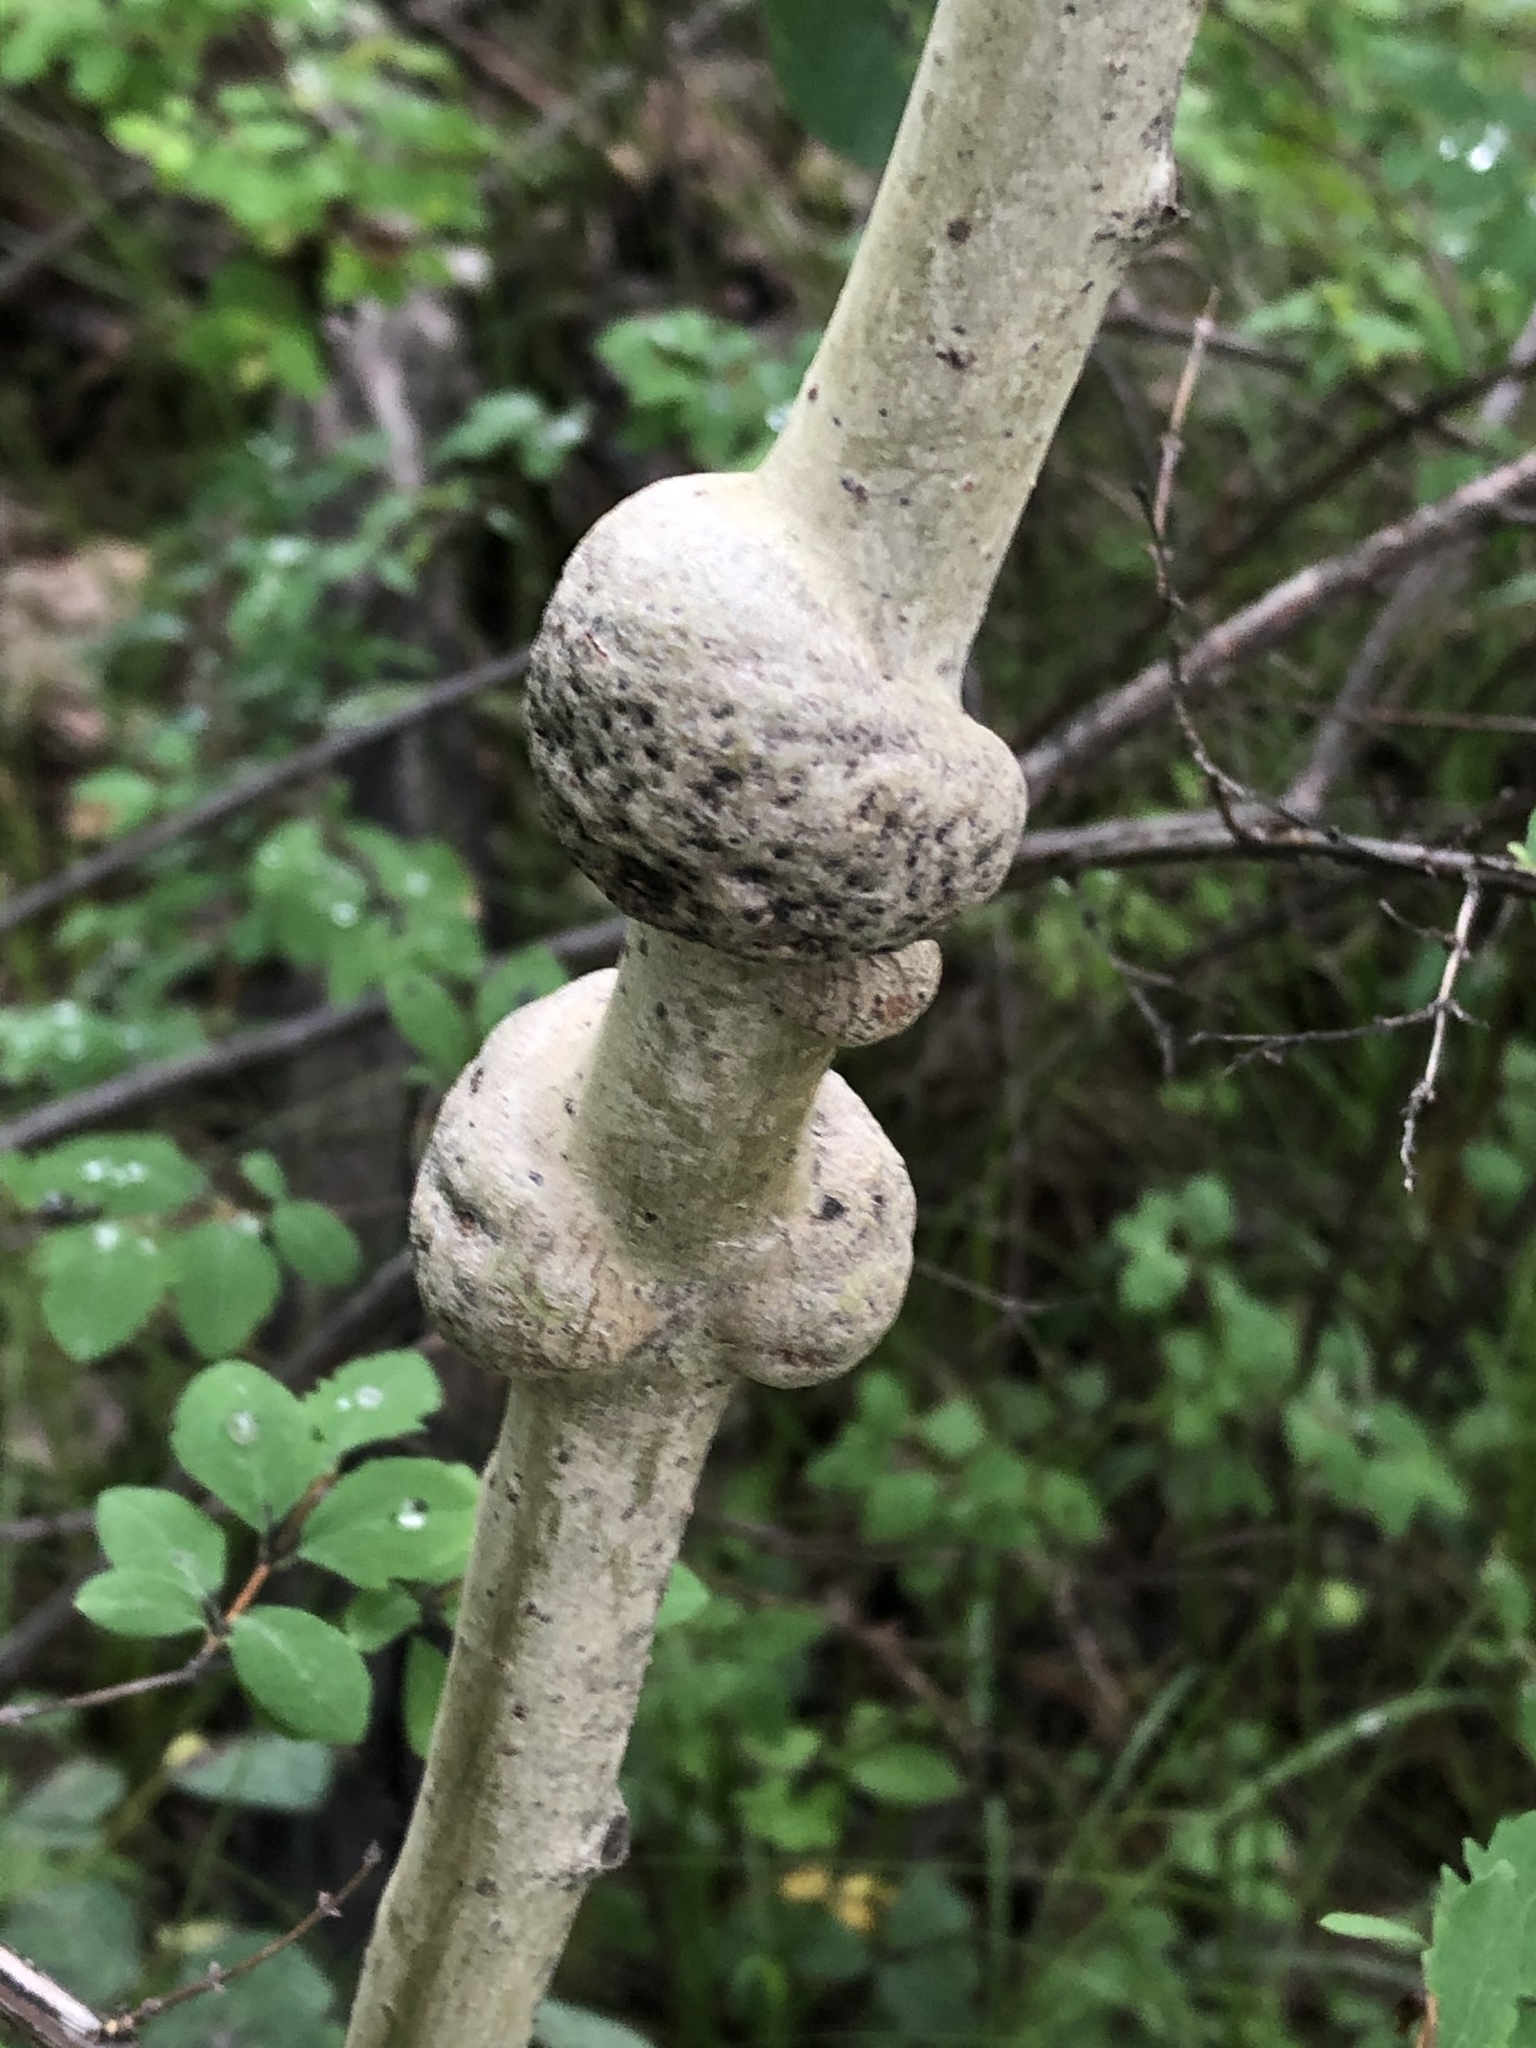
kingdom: Bacteria
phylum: Proteobacteria
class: Alphaproteobacteria
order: Rhizobiales
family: Rhizobiaceae
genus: Rhizobium
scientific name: Rhizobium Agrobacterium radiobacter
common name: Bacterial crown gall
